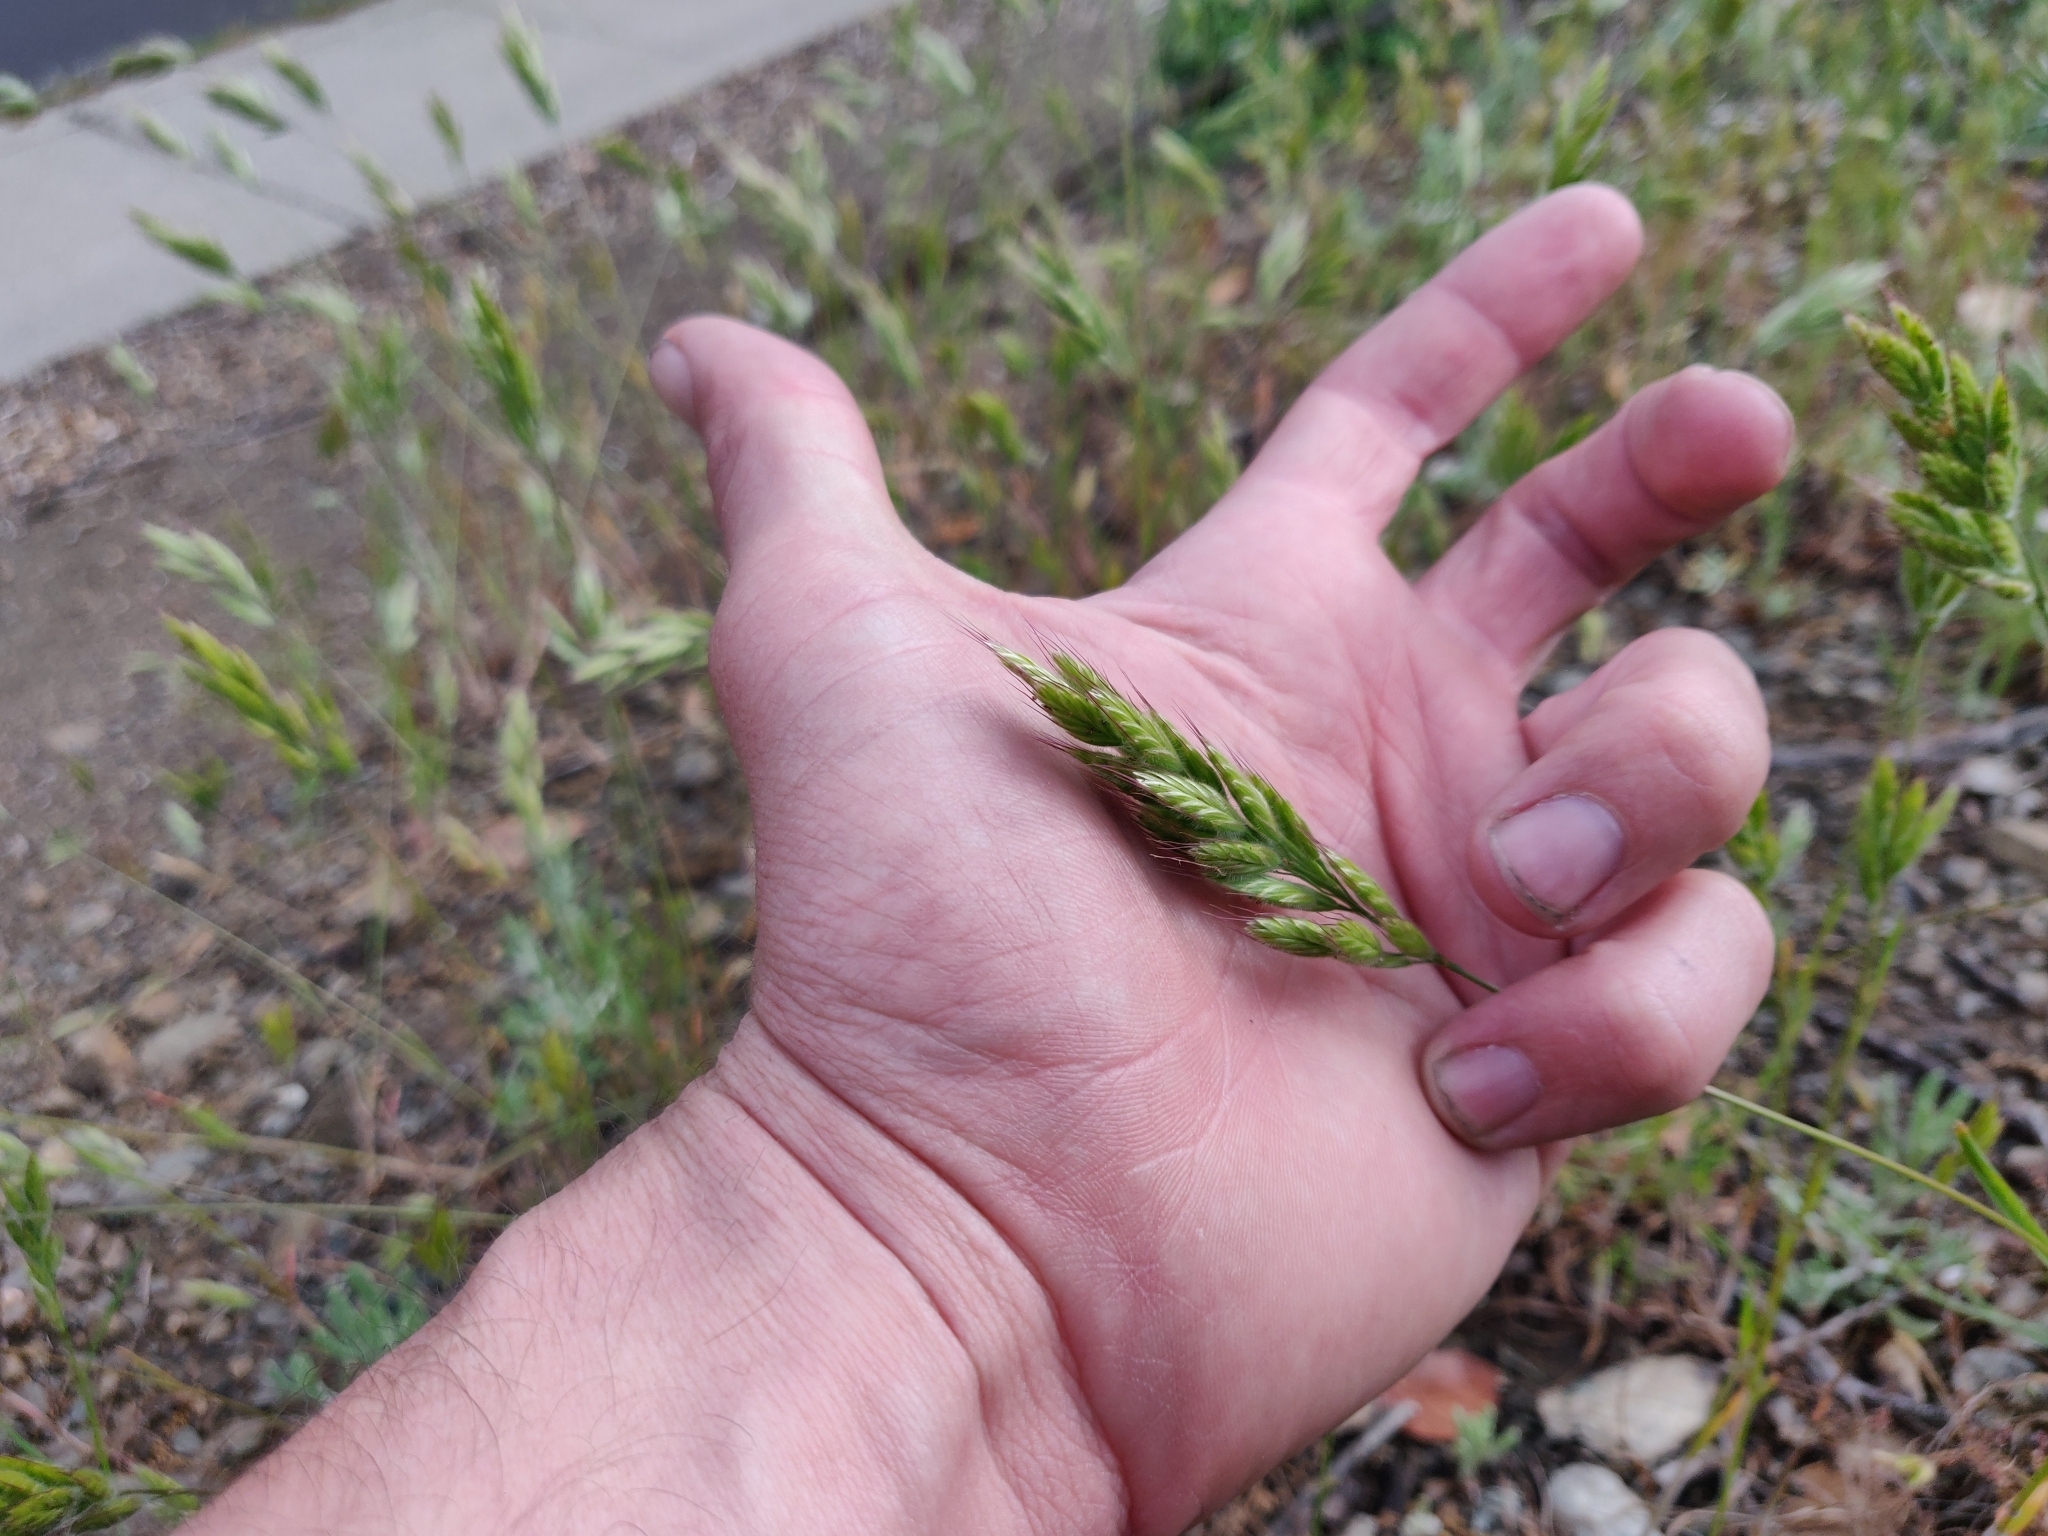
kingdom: Plantae
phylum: Tracheophyta
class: Liliopsida
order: Poales
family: Poaceae
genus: Bromus
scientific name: Bromus hordeaceus
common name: Soft brome
